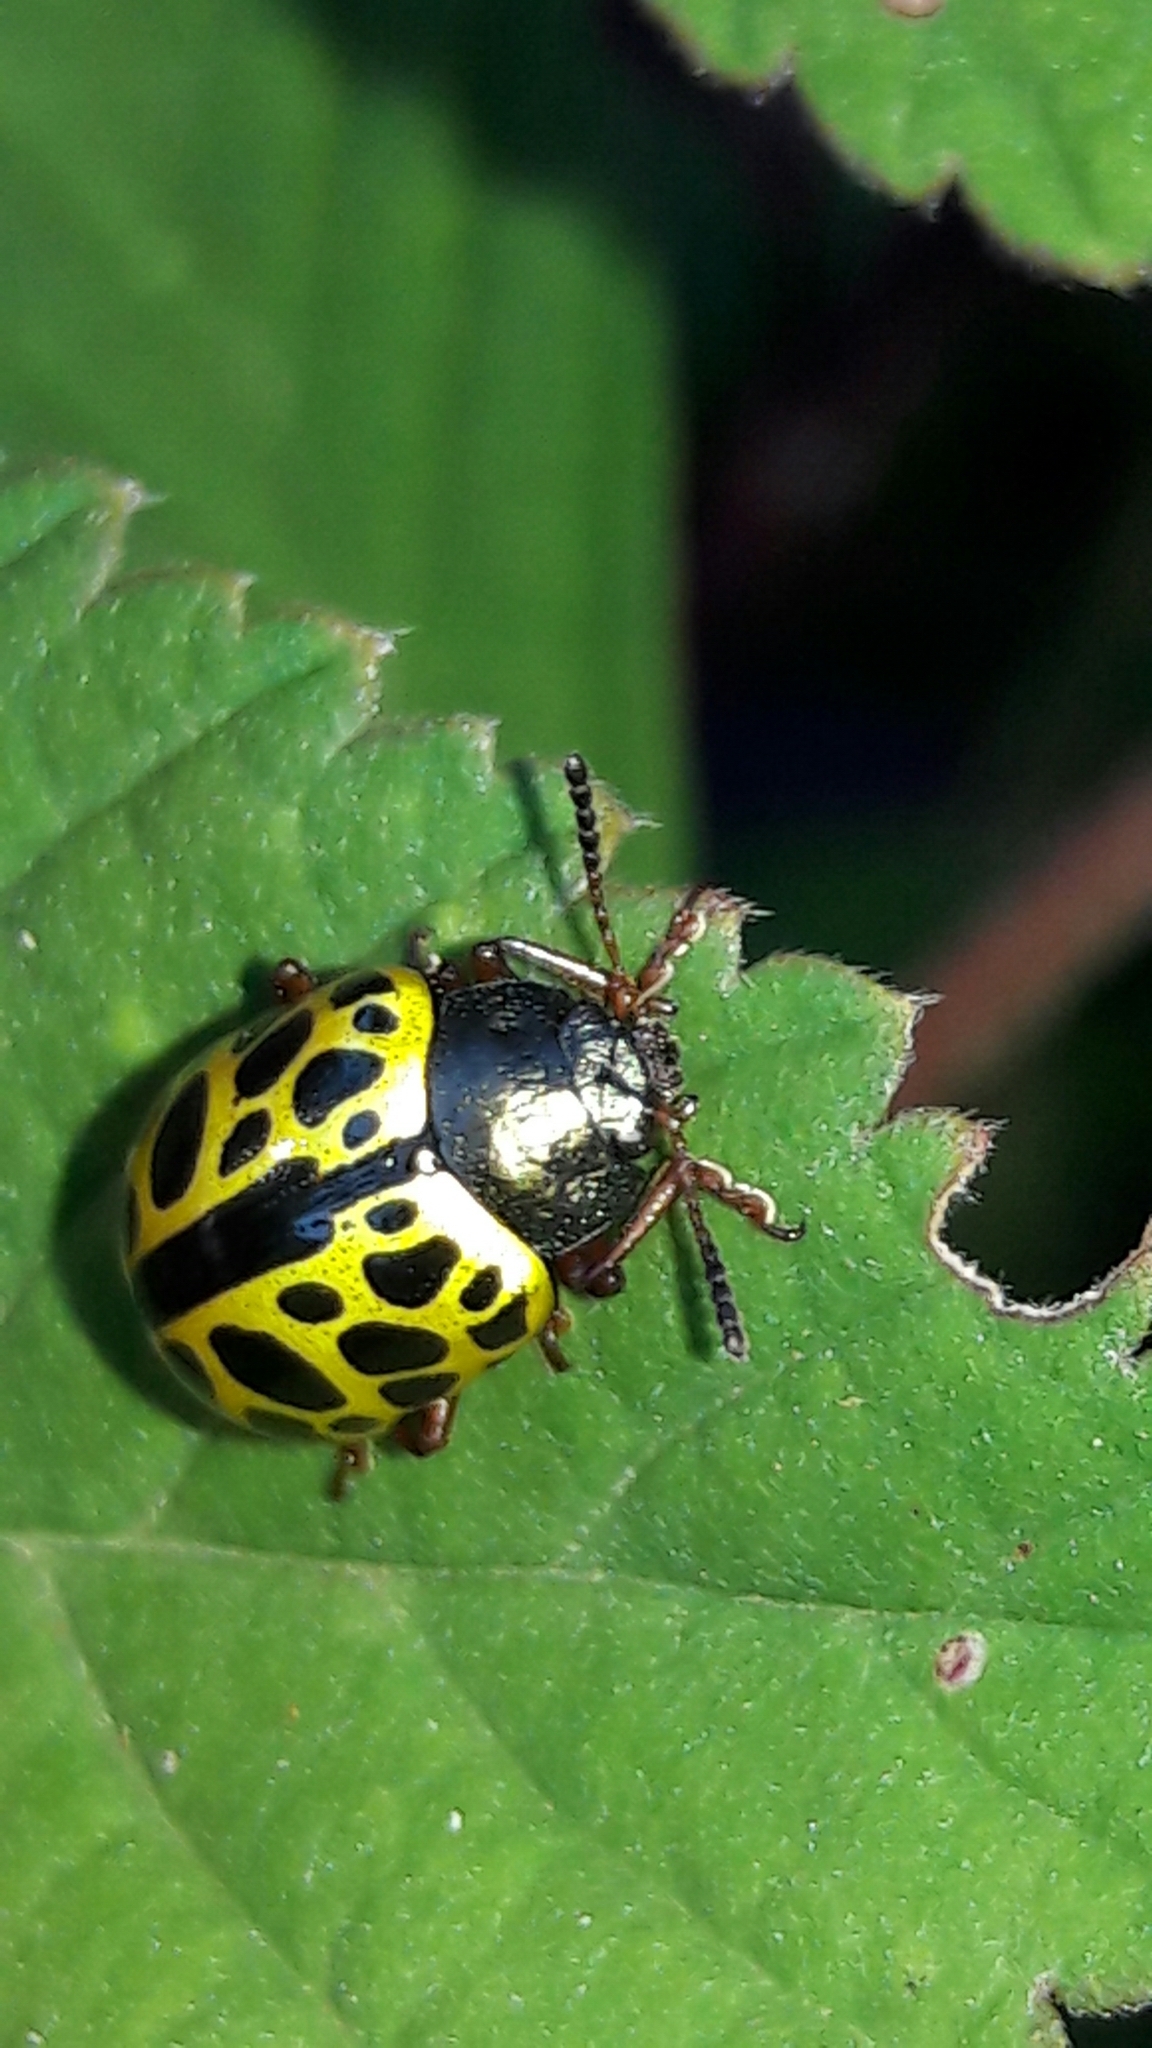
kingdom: Animalia
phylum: Arthropoda
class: Insecta
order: Coleoptera
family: Chrysomelidae
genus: Calligrapha
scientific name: Calligrapha polyspila
